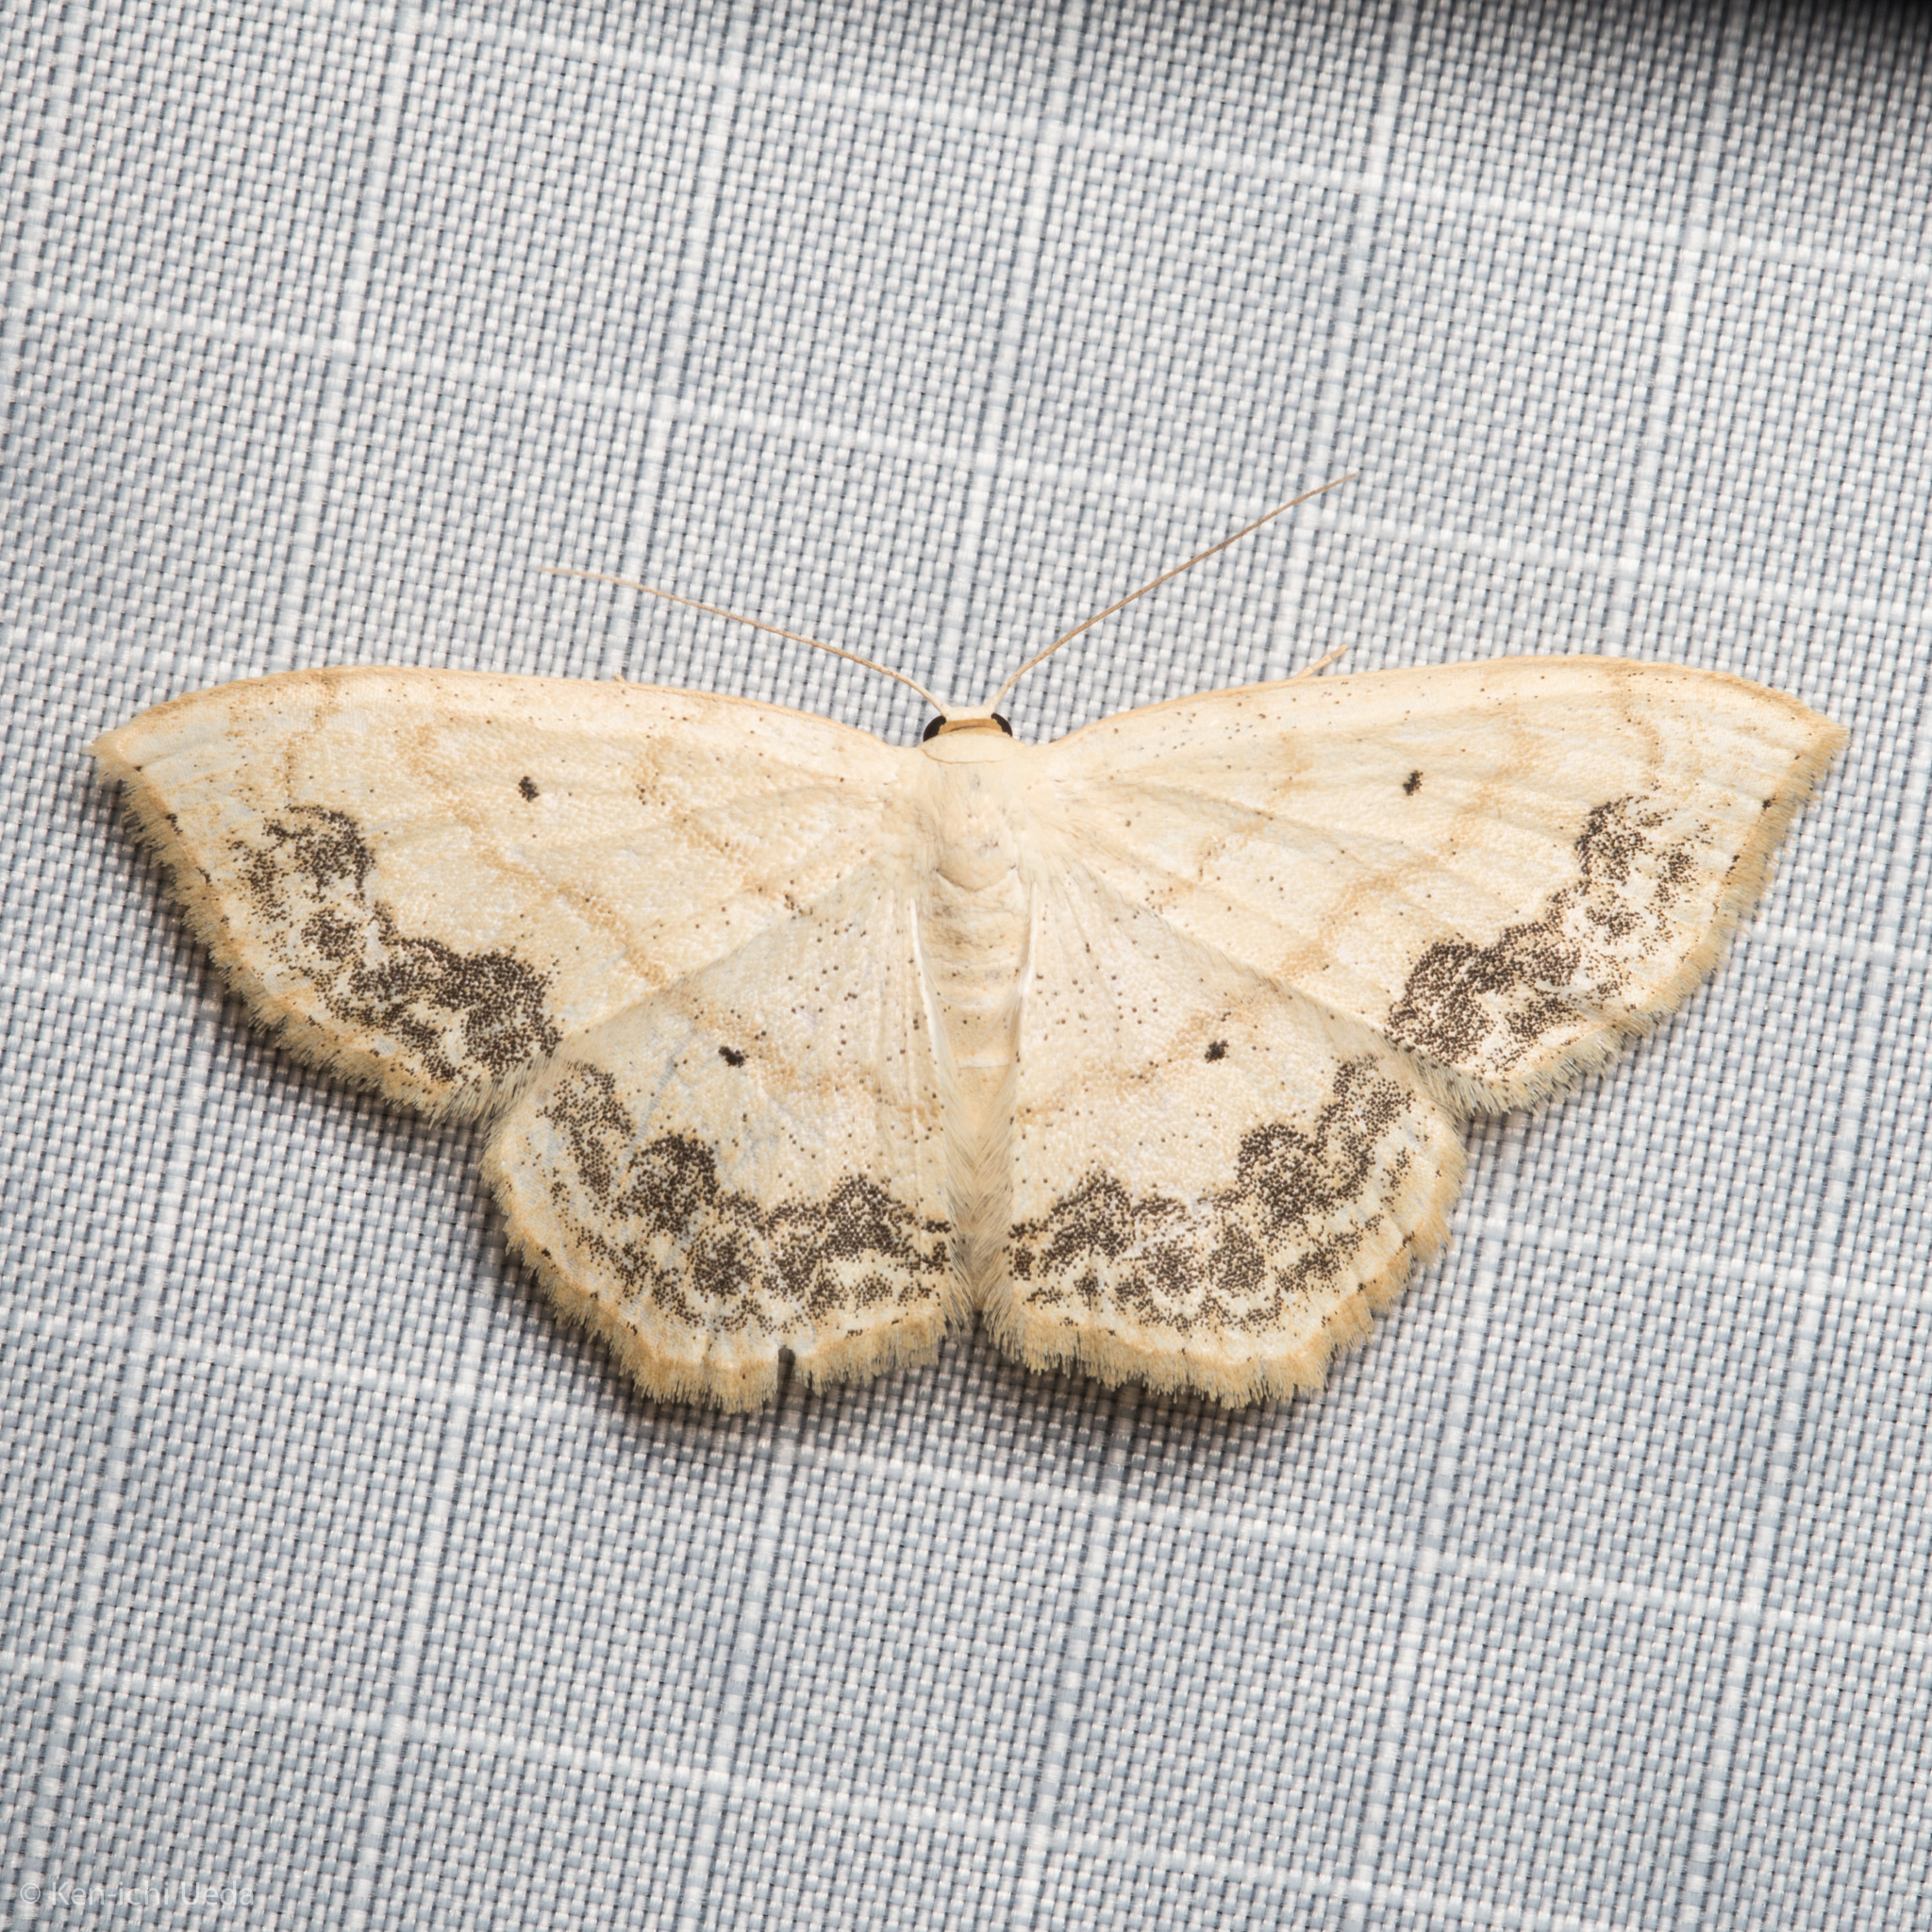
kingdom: Animalia
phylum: Arthropoda
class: Insecta
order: Lepidoptera
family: Geometridae
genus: Scopula
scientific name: Scopula limboundata
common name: Large lace border
